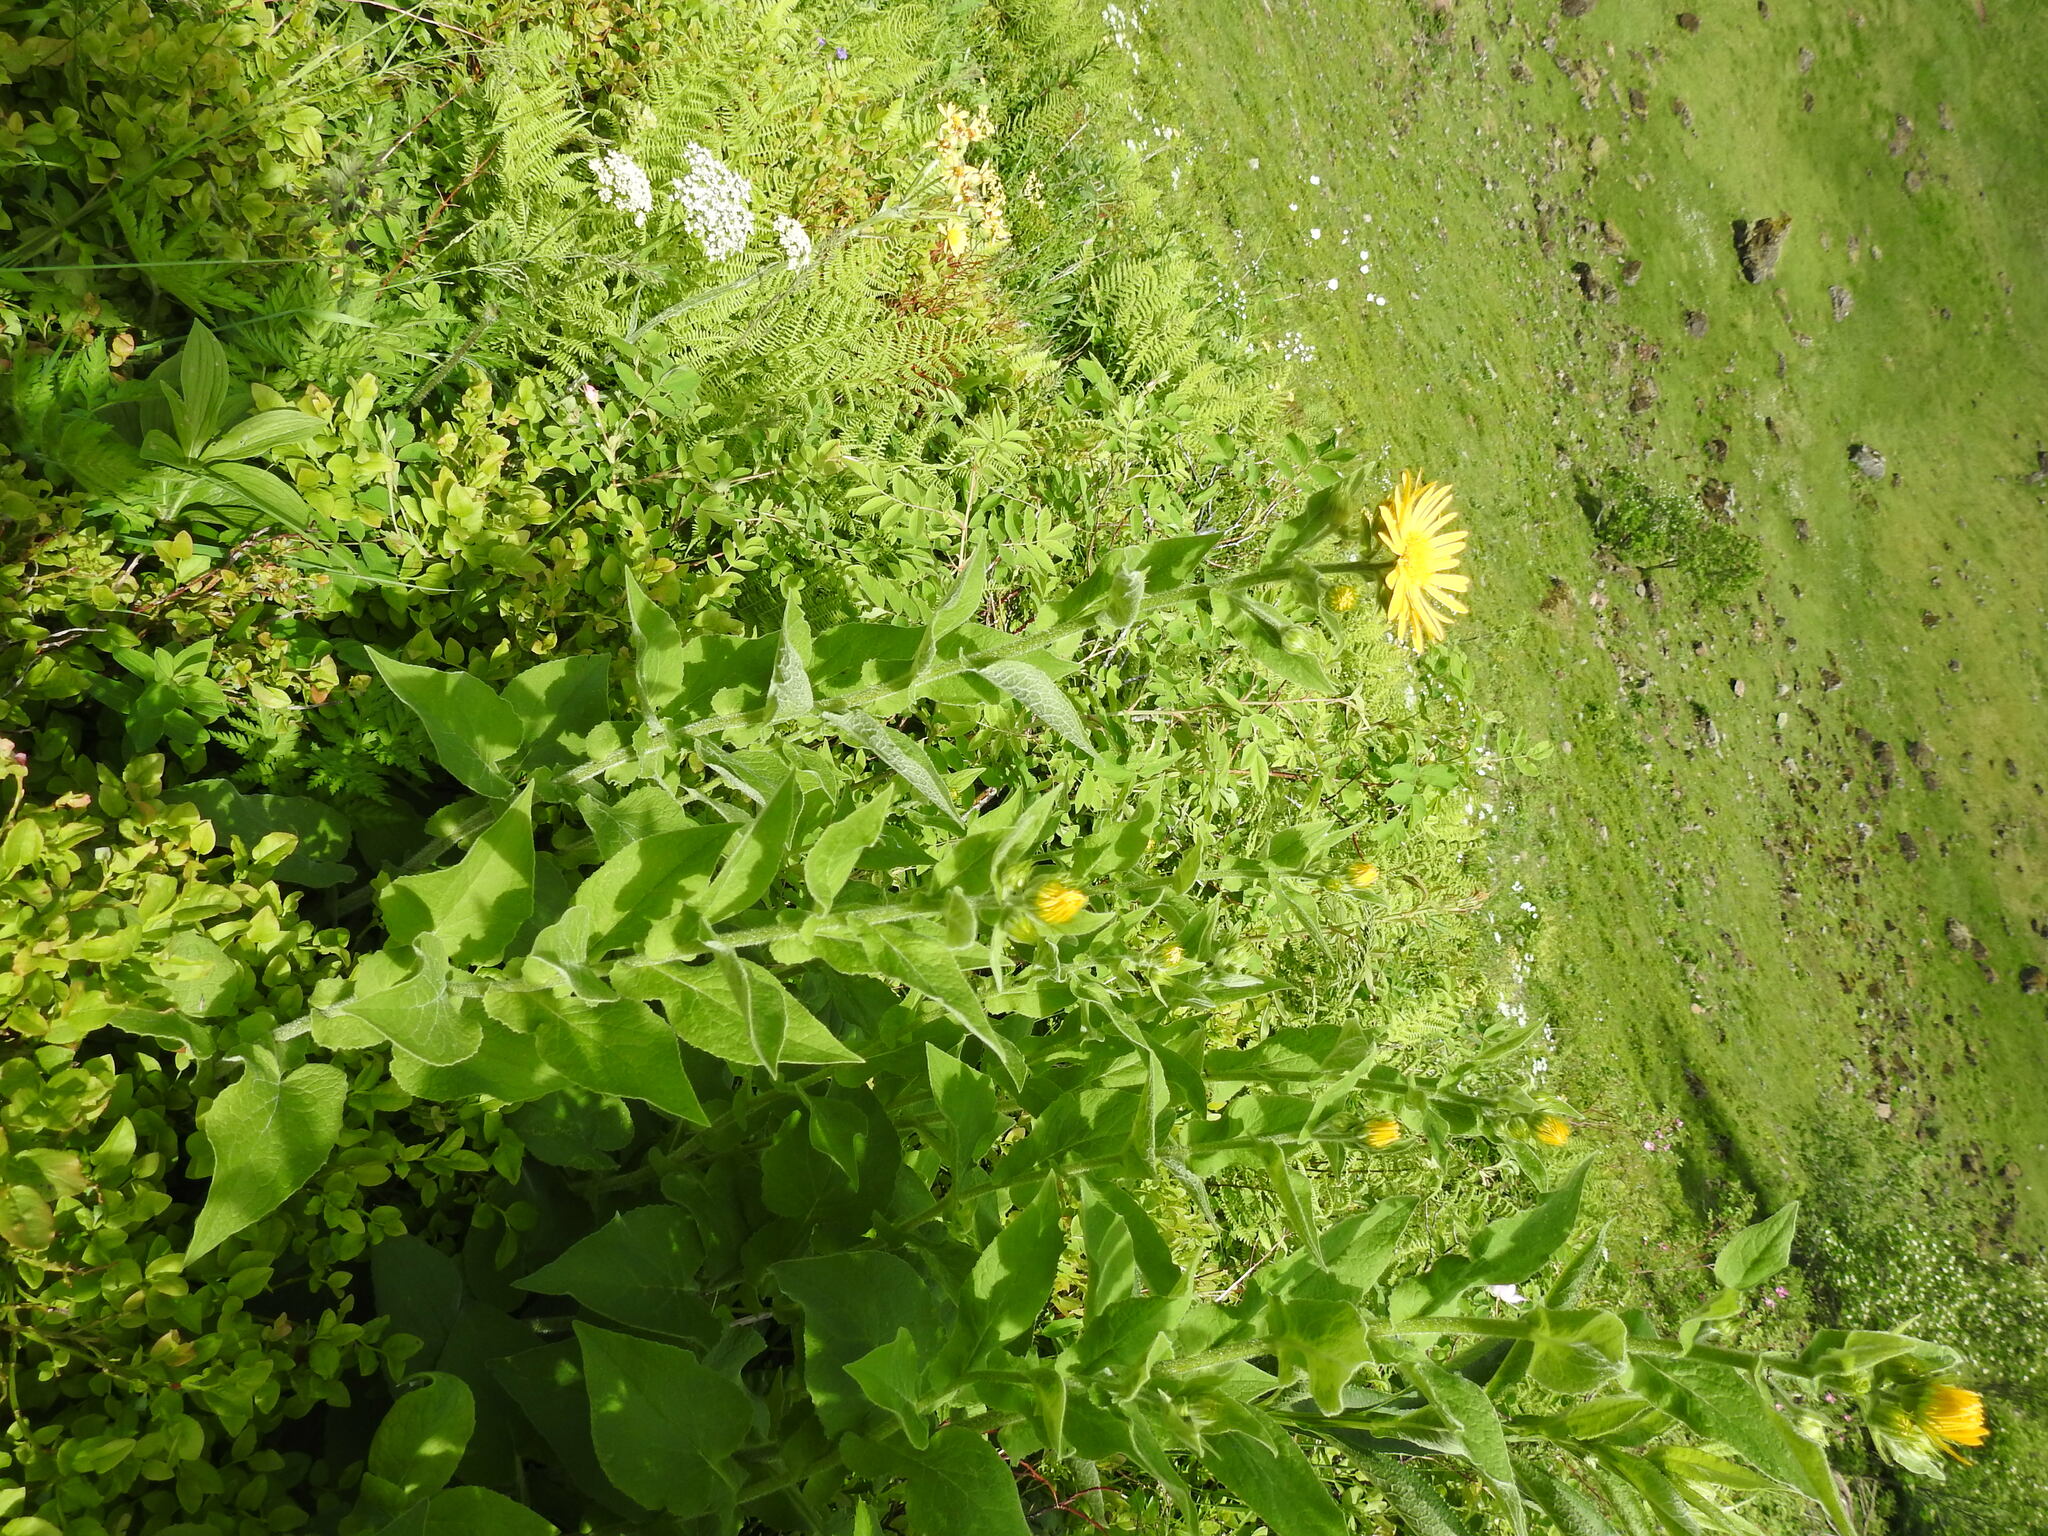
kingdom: Plantae
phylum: Tracheophyta
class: Magnoliopsida
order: Asterales
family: Asteraceae
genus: Doronicum
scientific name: Doronicum austriacum
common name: Austrian leopard's-bane
